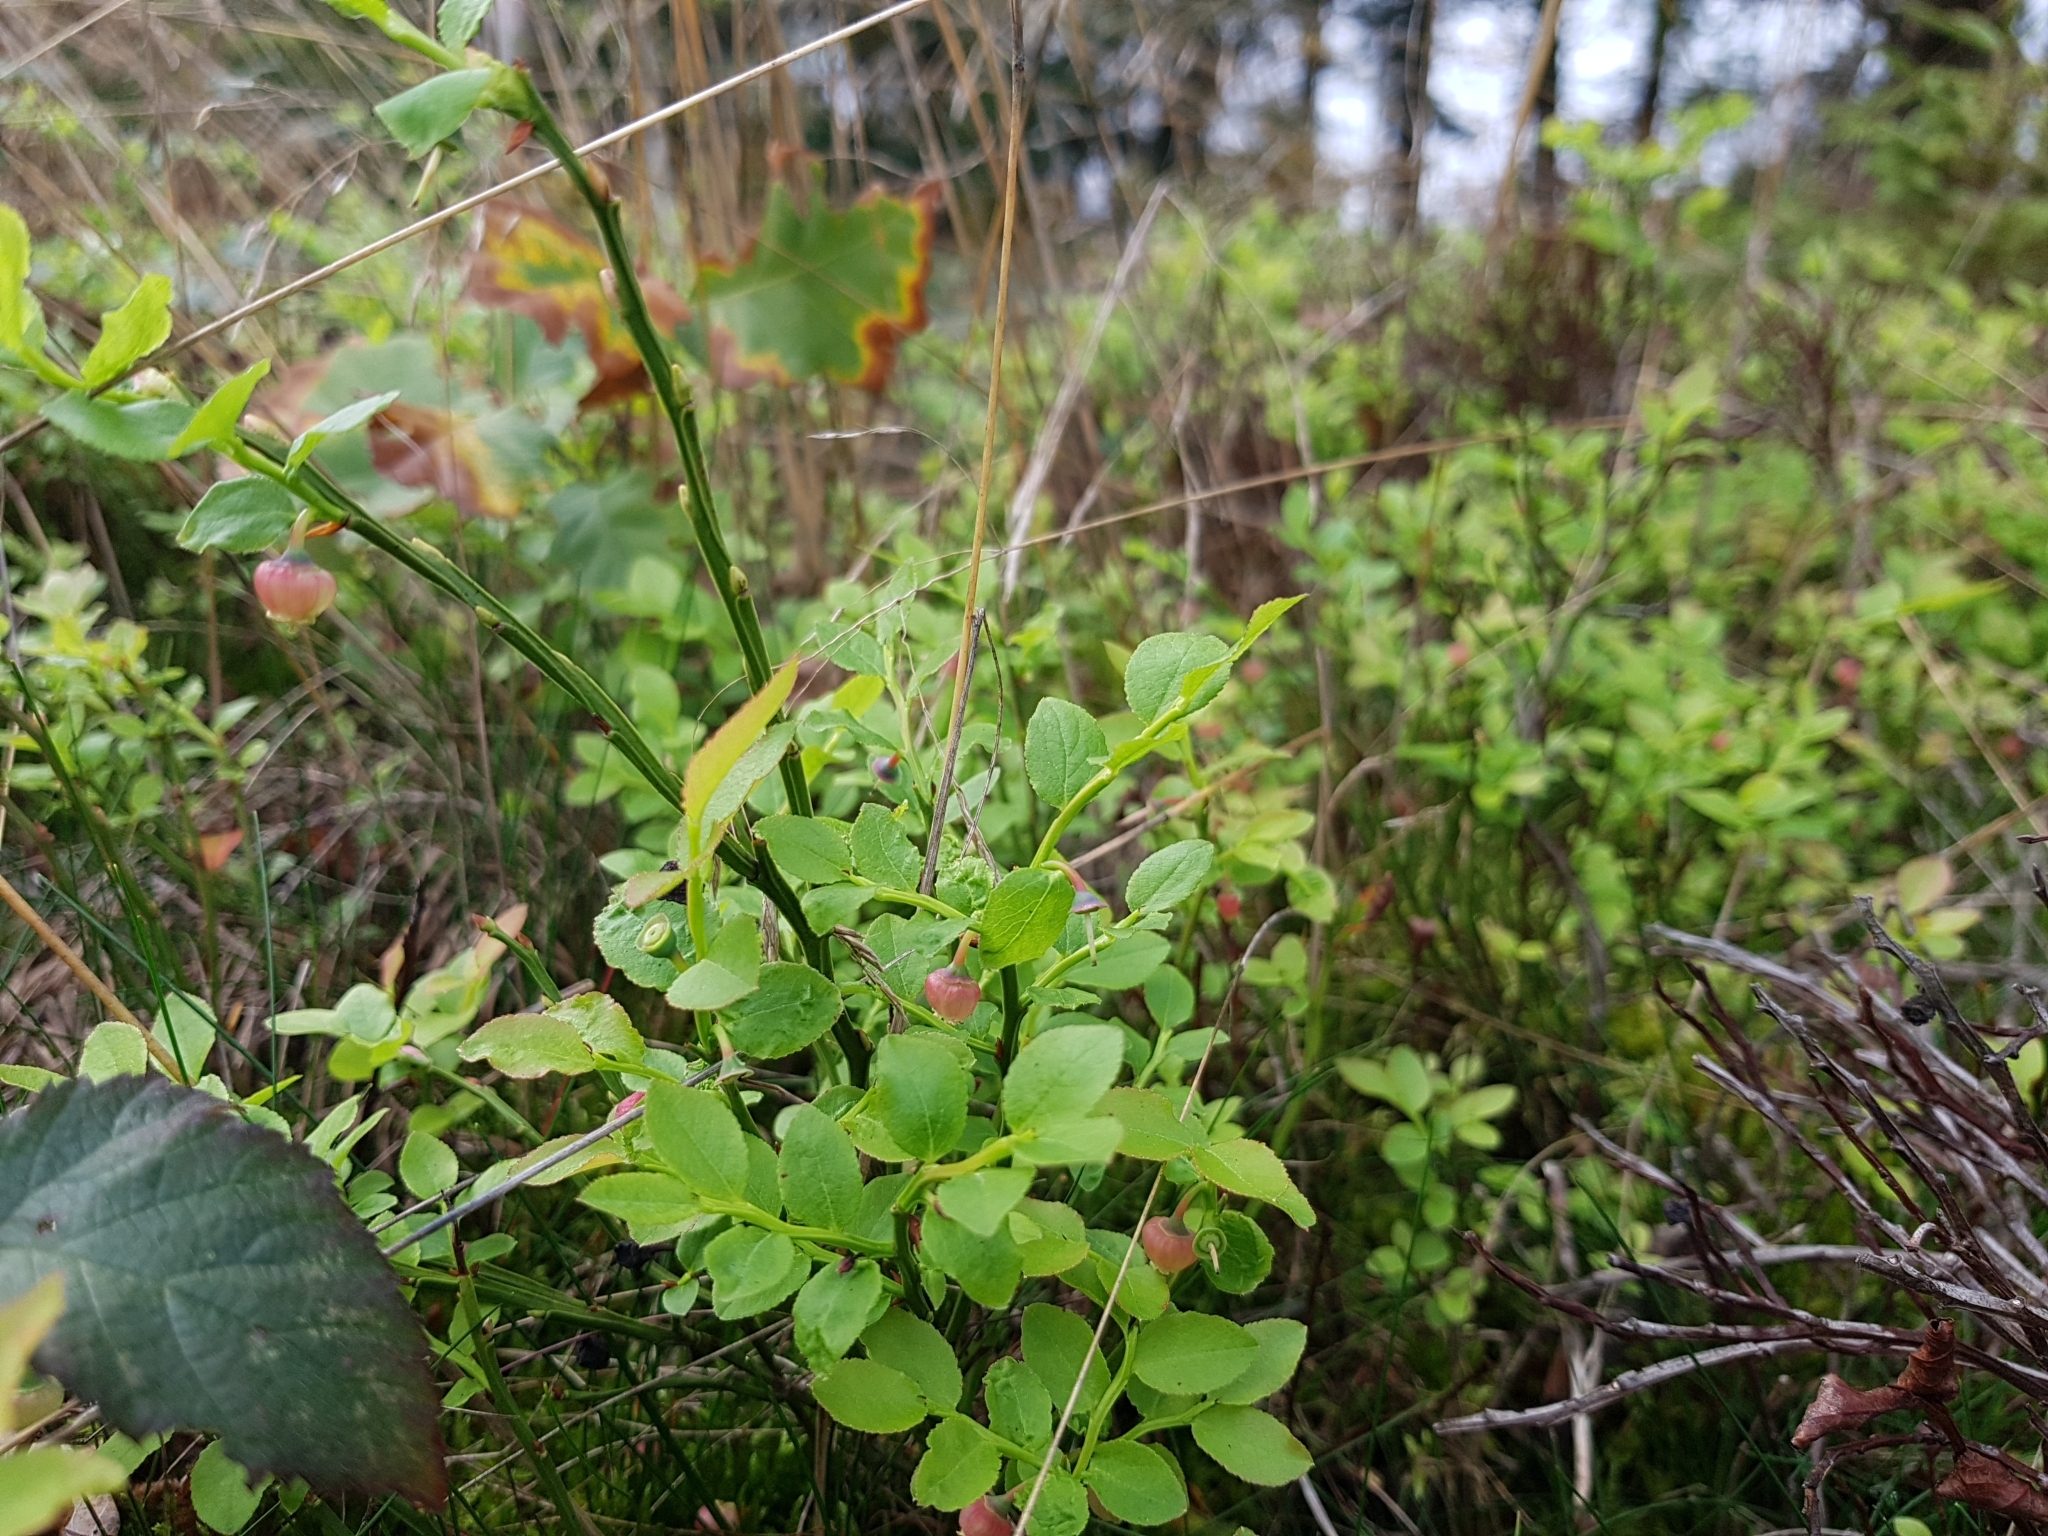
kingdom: Plantae
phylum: Tracheophyta
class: Magnoliopsida
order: Ericales
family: Ericaceae
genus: Vaccinium
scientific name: Vaccinium myrtillus
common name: Bilberry
